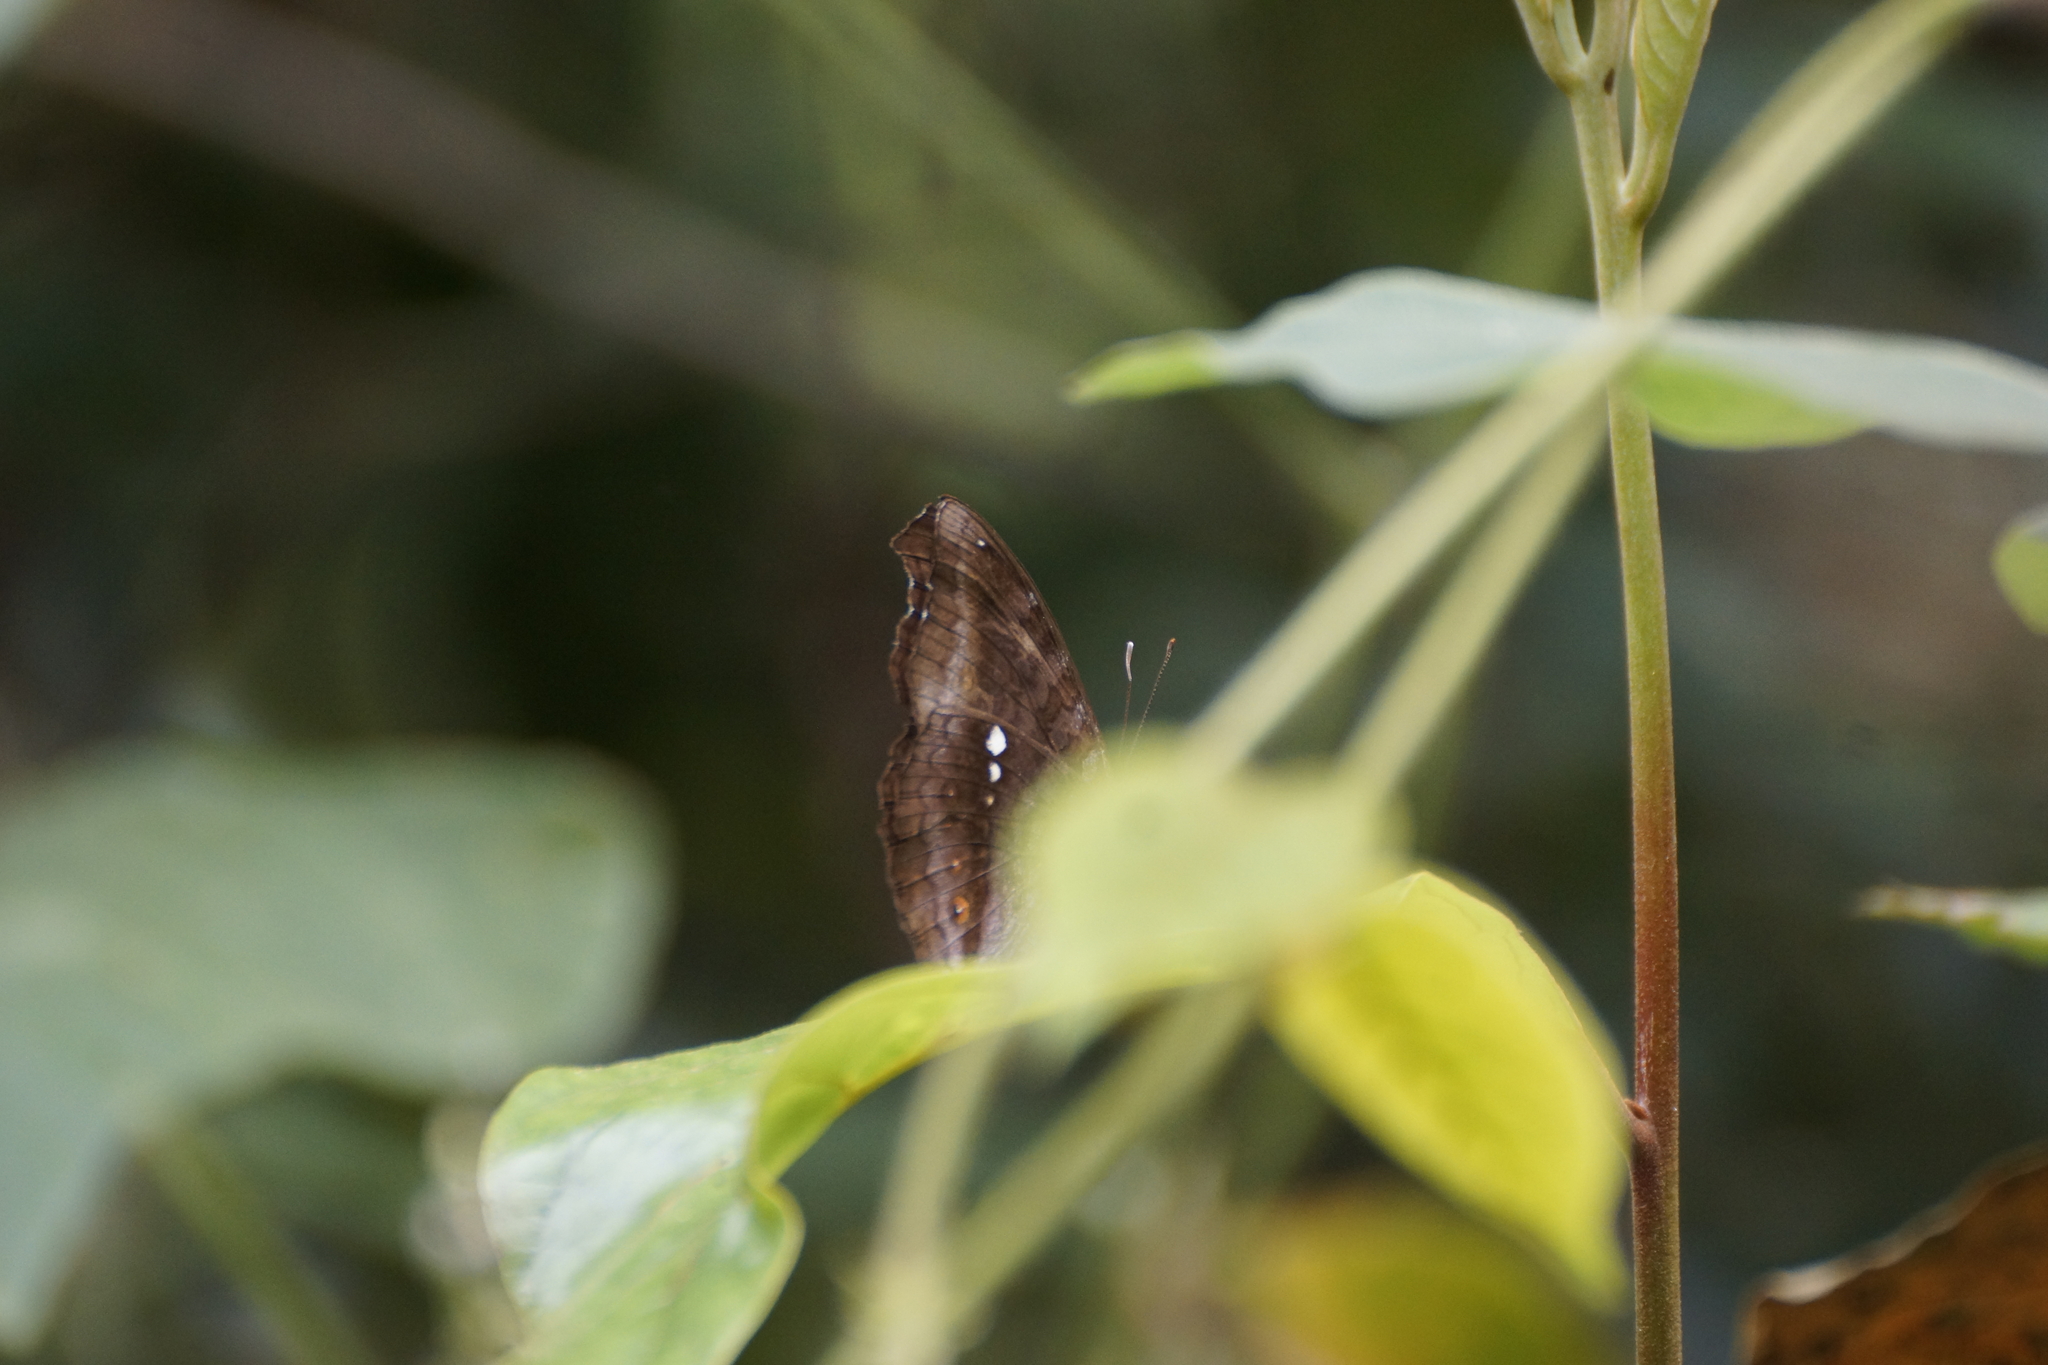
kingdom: Animalia
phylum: Arthropoda
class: Insecta
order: Lepidoptera
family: Nymphalidae
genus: Junonia
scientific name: Junonia hedonia
